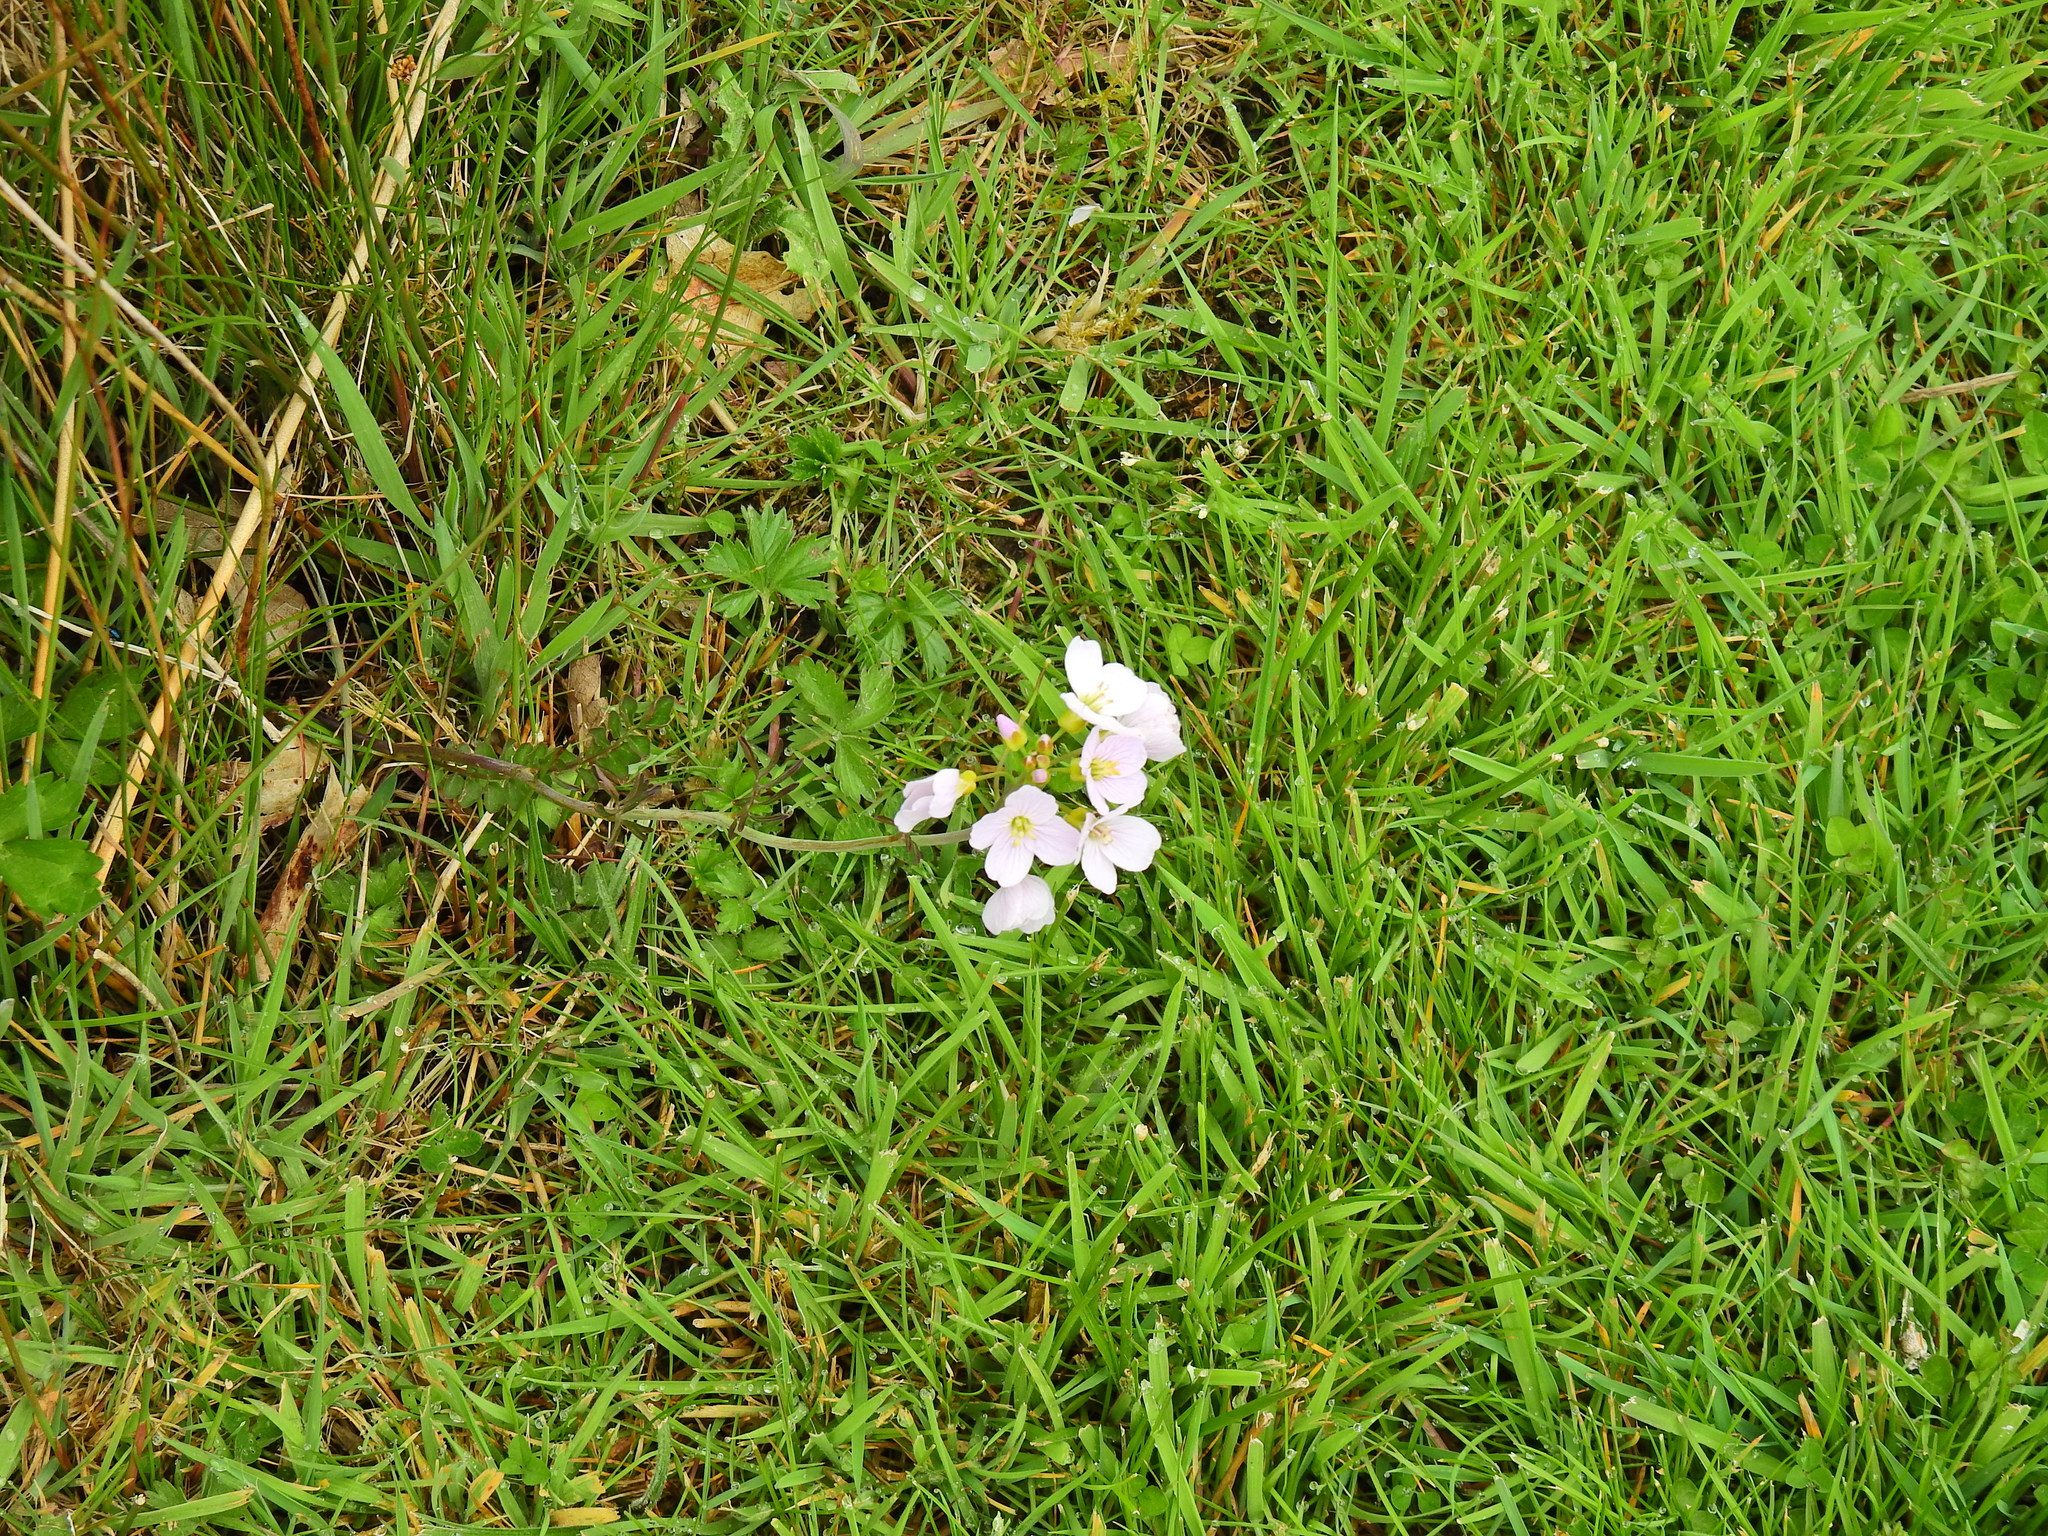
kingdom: Plantae
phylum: Tracheophyta
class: Magnoliopsida
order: Brassicales
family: Brassicaceae
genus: Cardamine
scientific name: Cardamine pratensis
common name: Cuckoo flower
